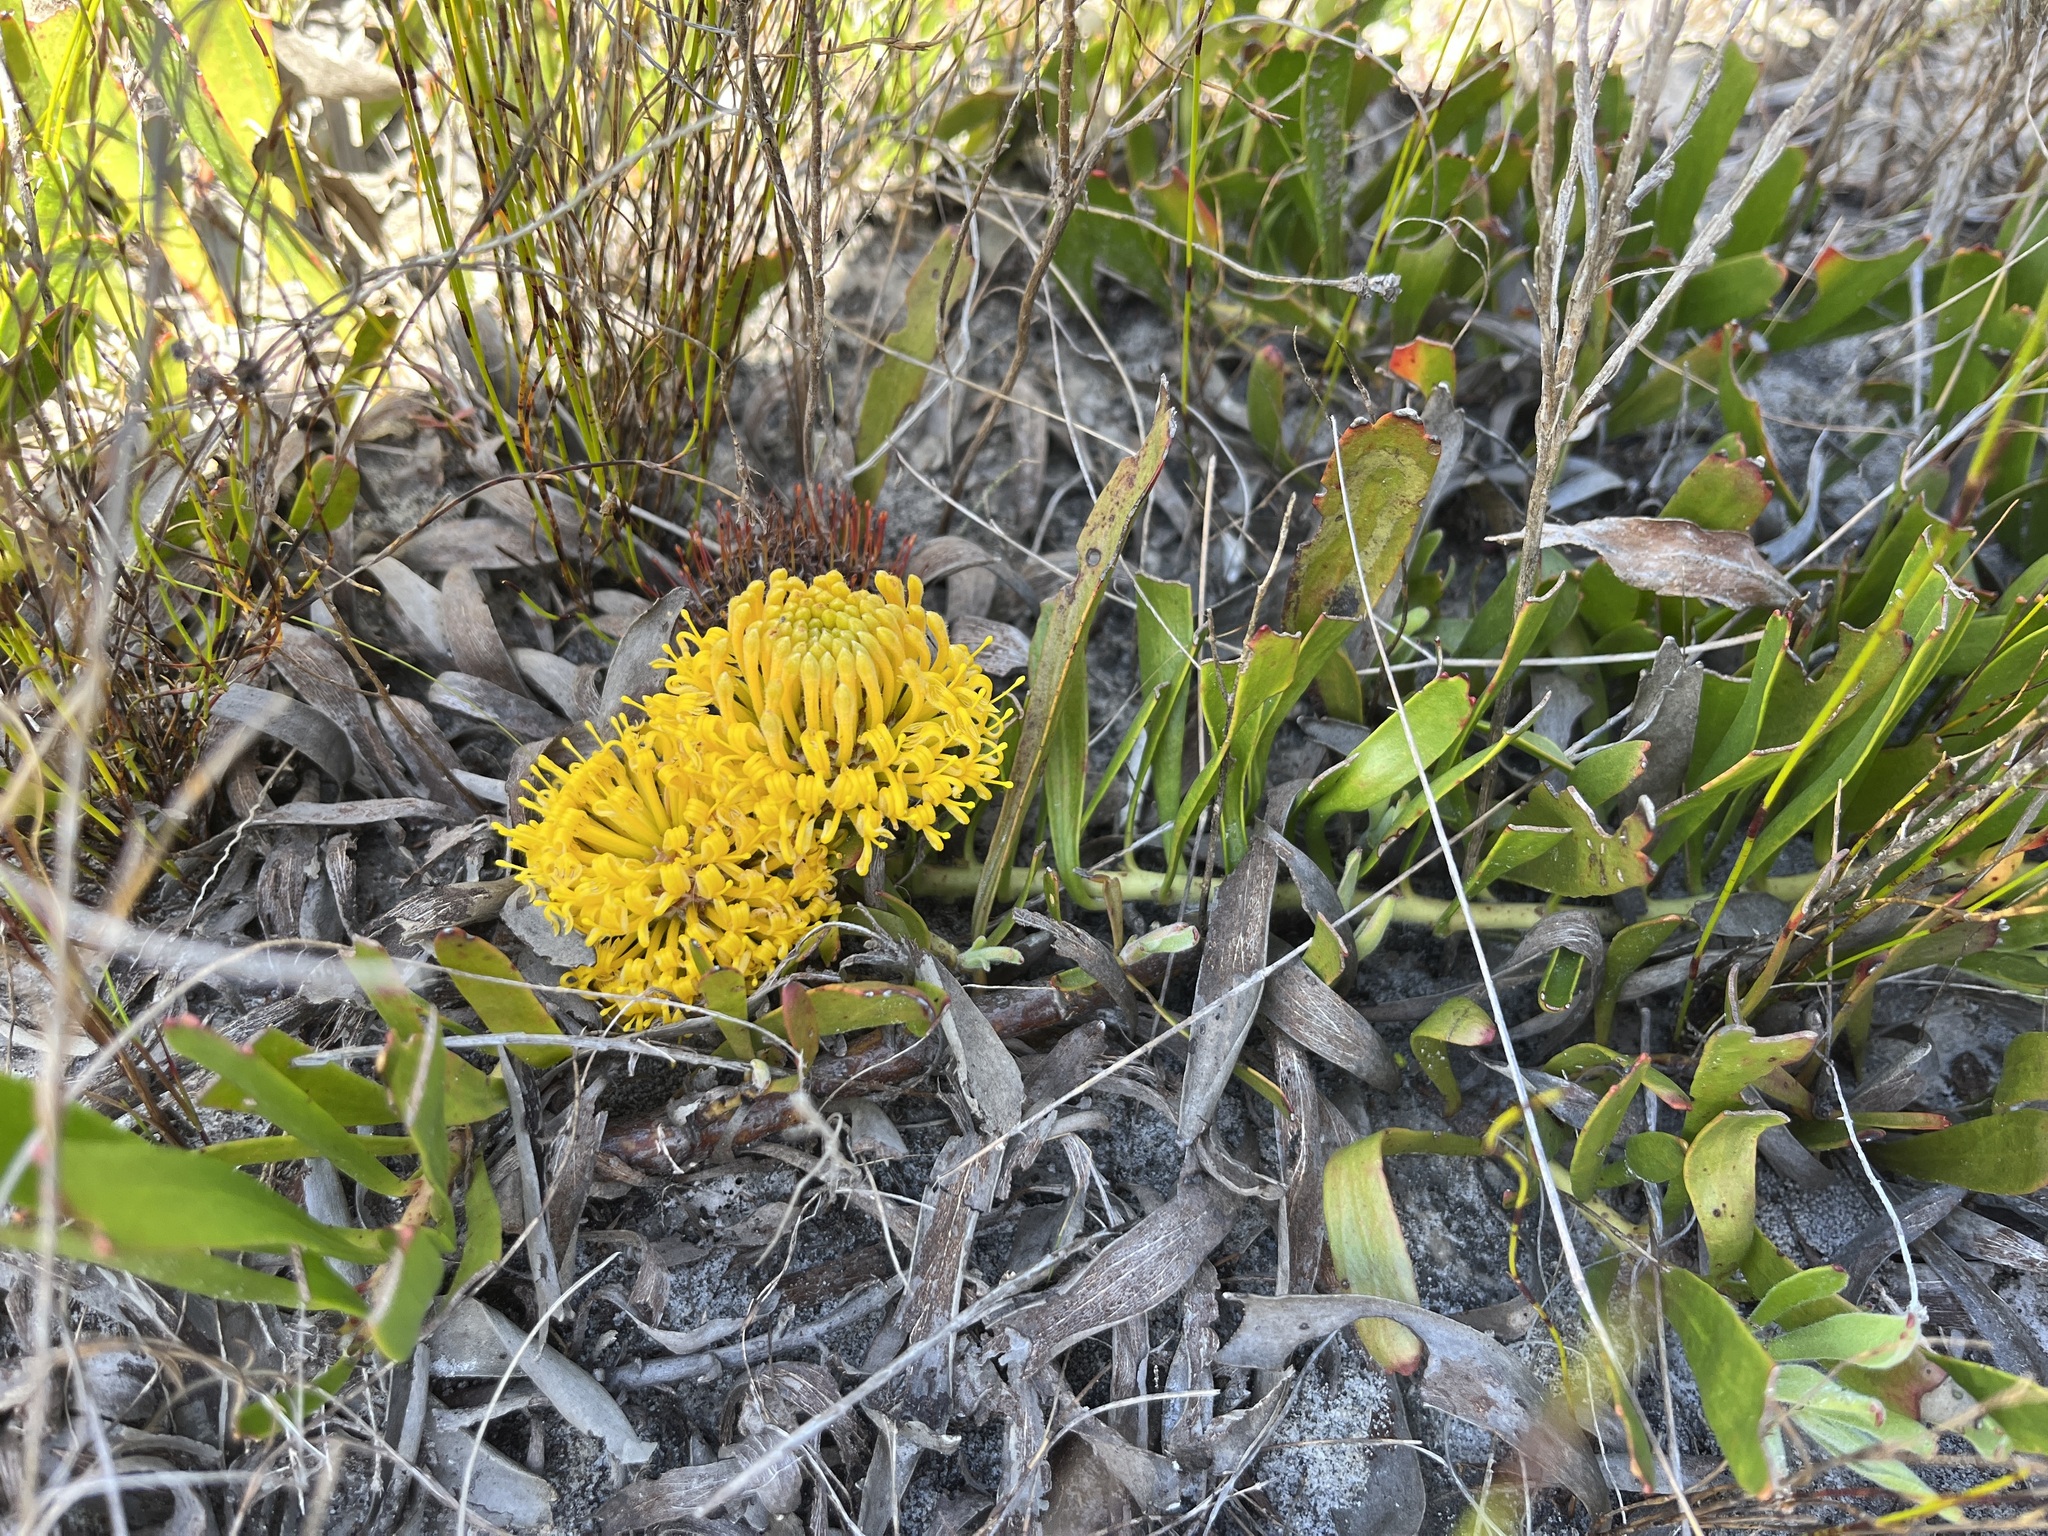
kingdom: Plantae
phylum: Tracheophyta
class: Magnoliopsida
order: Proteales
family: Proteaceae
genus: Leucospermum
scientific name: Leucospermum hypophyllocarpodendron
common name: Snakestem pincushion
